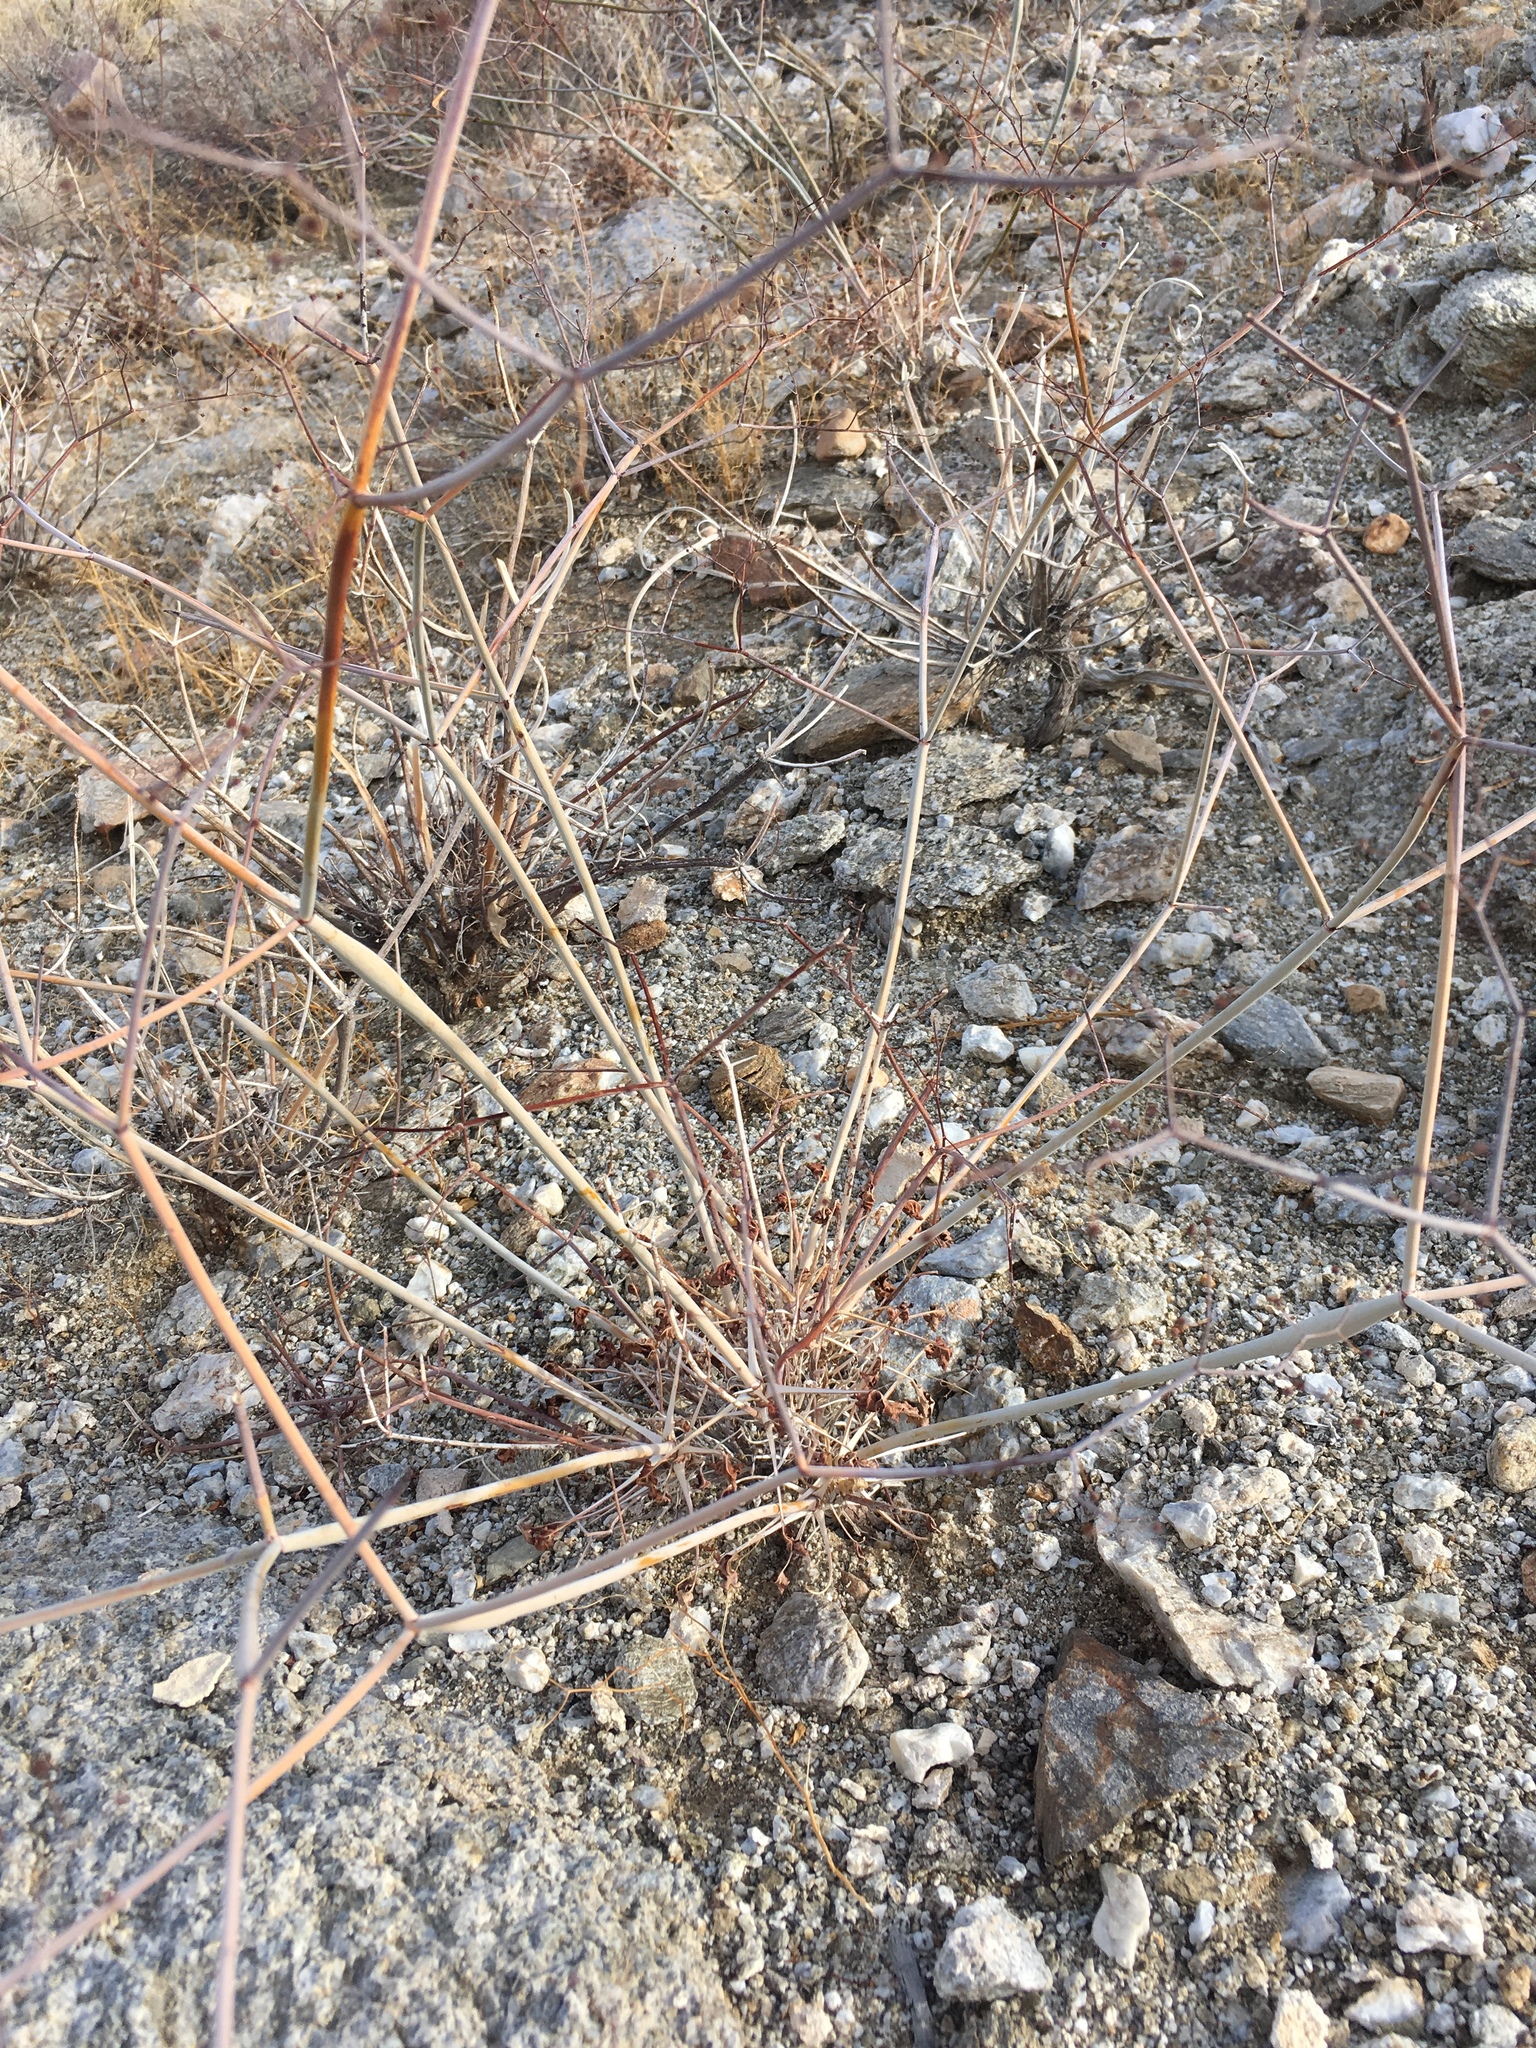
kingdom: Plantae
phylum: Tracheophyta
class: Magnoliopsida
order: Caryophyllales
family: Polygonaceae
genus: Eriogonum
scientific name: Eriogonum inflatum
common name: Desert trumpet
